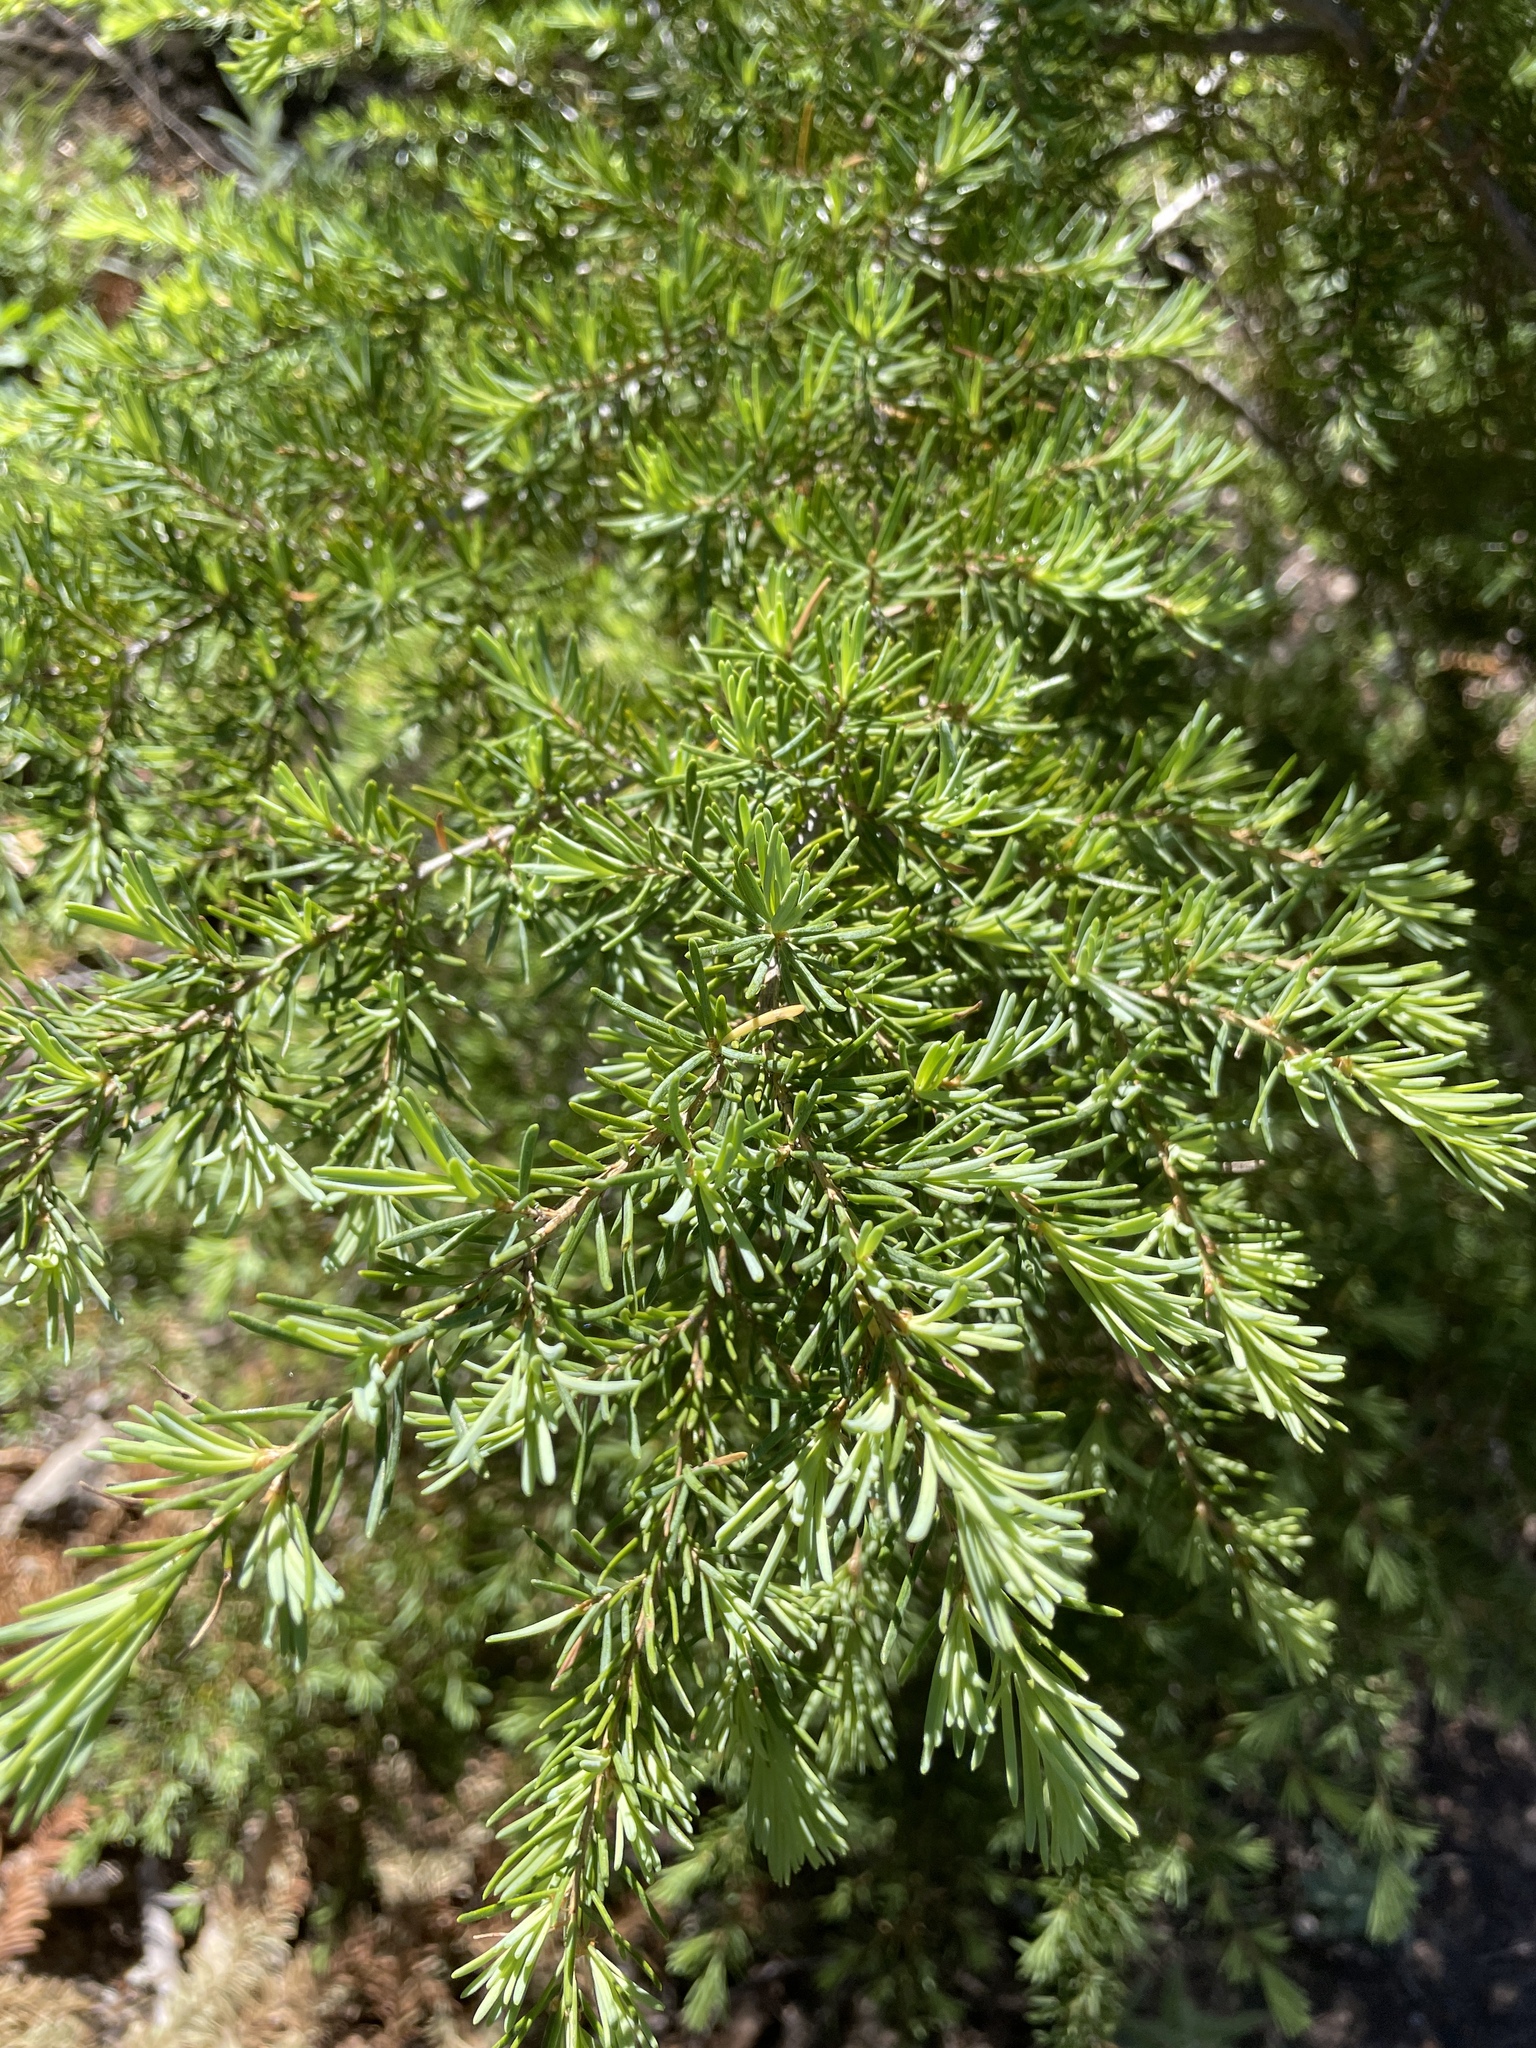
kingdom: Plantae
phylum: Tracheophyta
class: Pinopsida
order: Pinales
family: Pinaceae
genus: Tsuga
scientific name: Tsuga mertensiana
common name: Mountain hemlock
